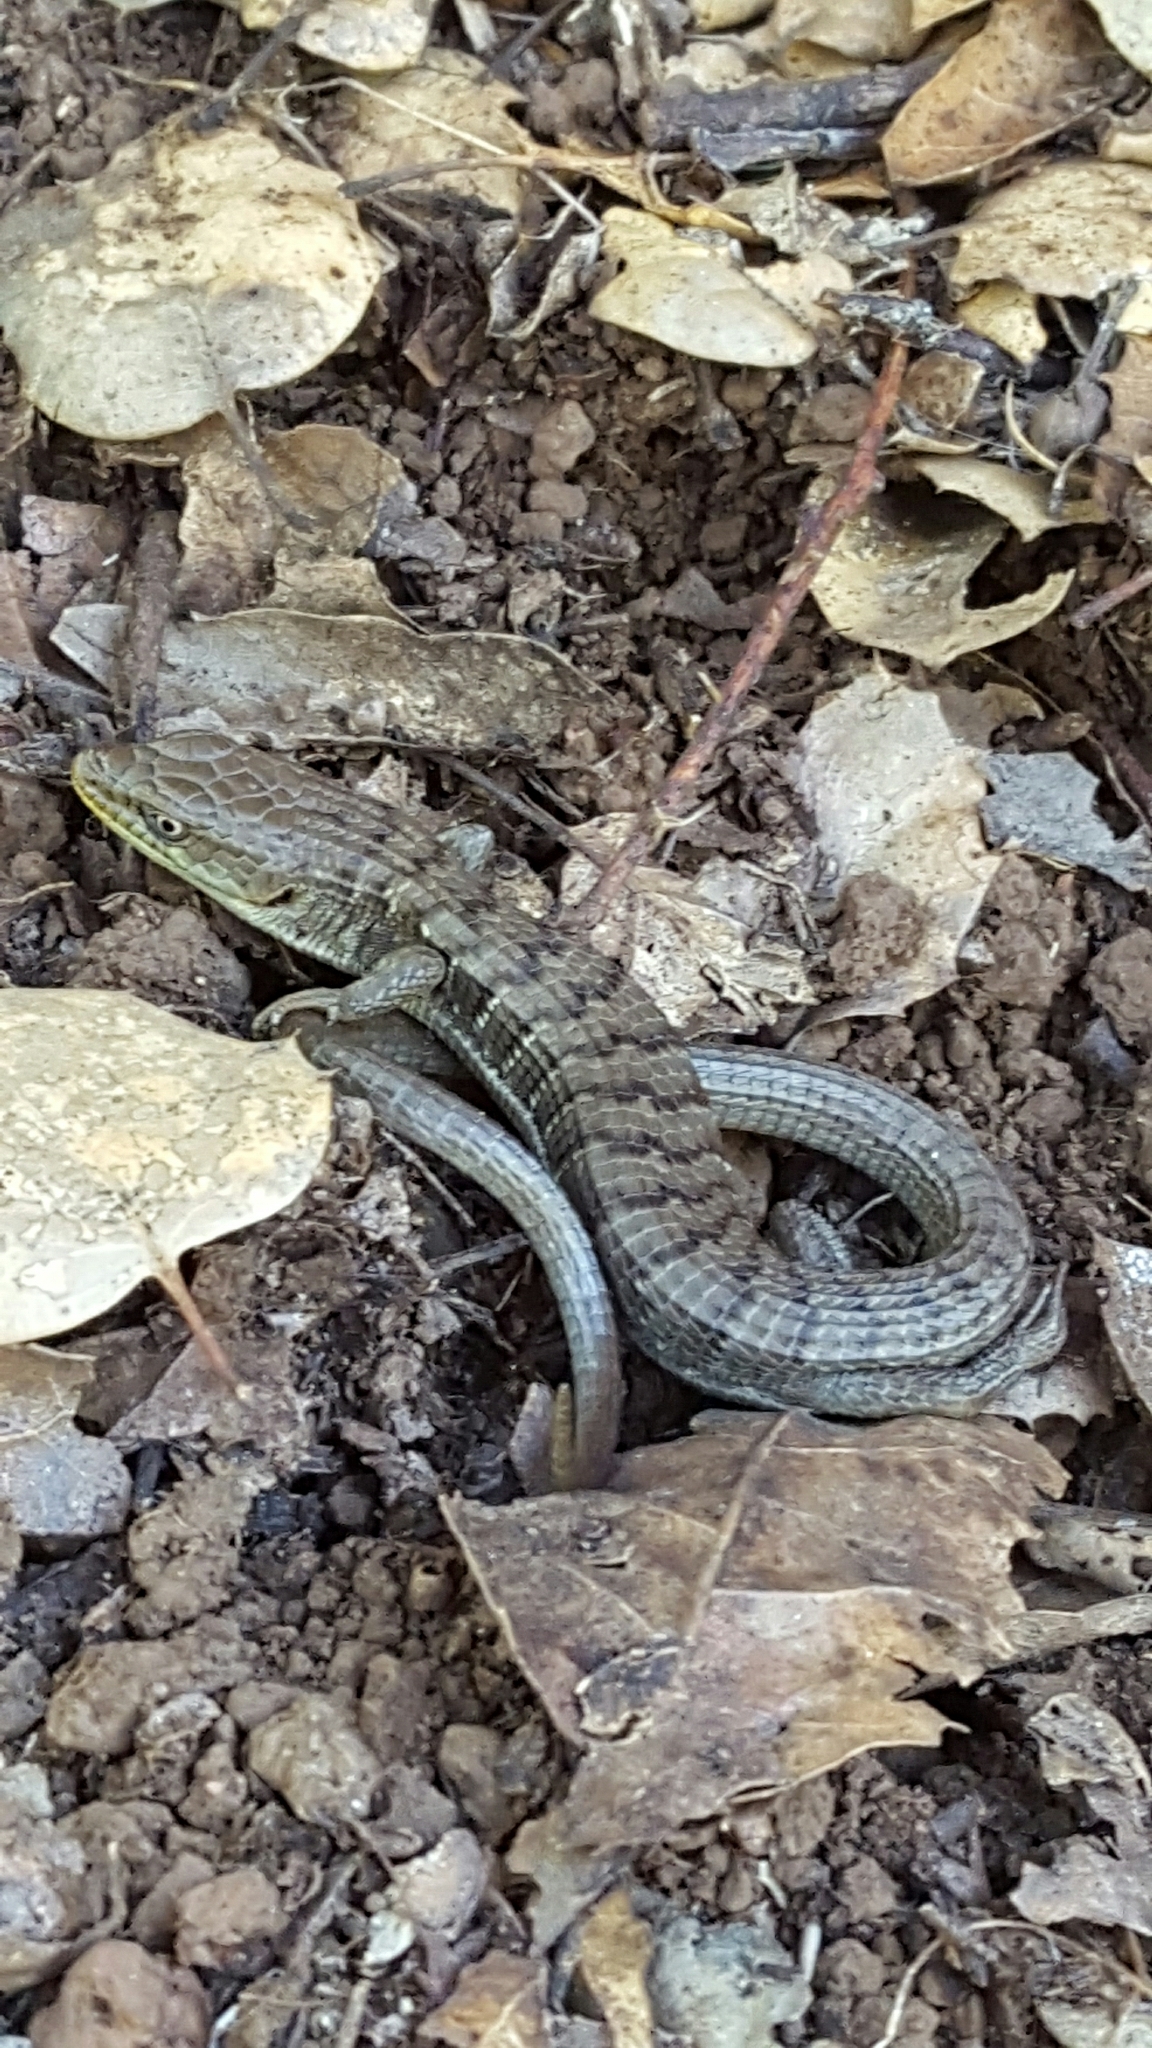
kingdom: Animalia
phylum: Chordata
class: Squamata
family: Anguidae
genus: Elgaria
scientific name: Elgaria multicarinata
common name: Southern alligator lizard
